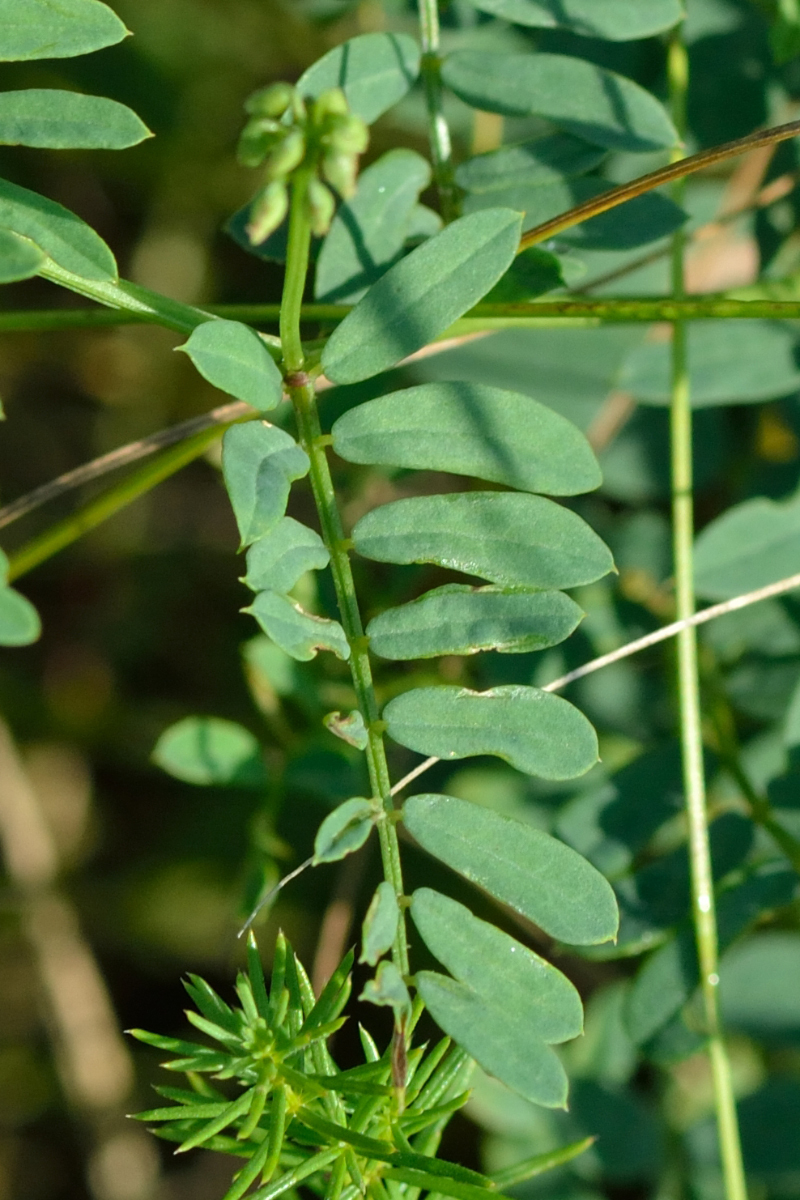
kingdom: Plantae
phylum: Tracheophyta
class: Magnoliopsida
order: Fabales
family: Fabaceae
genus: Coronilla
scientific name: Coronilla varia
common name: Crownvetch
